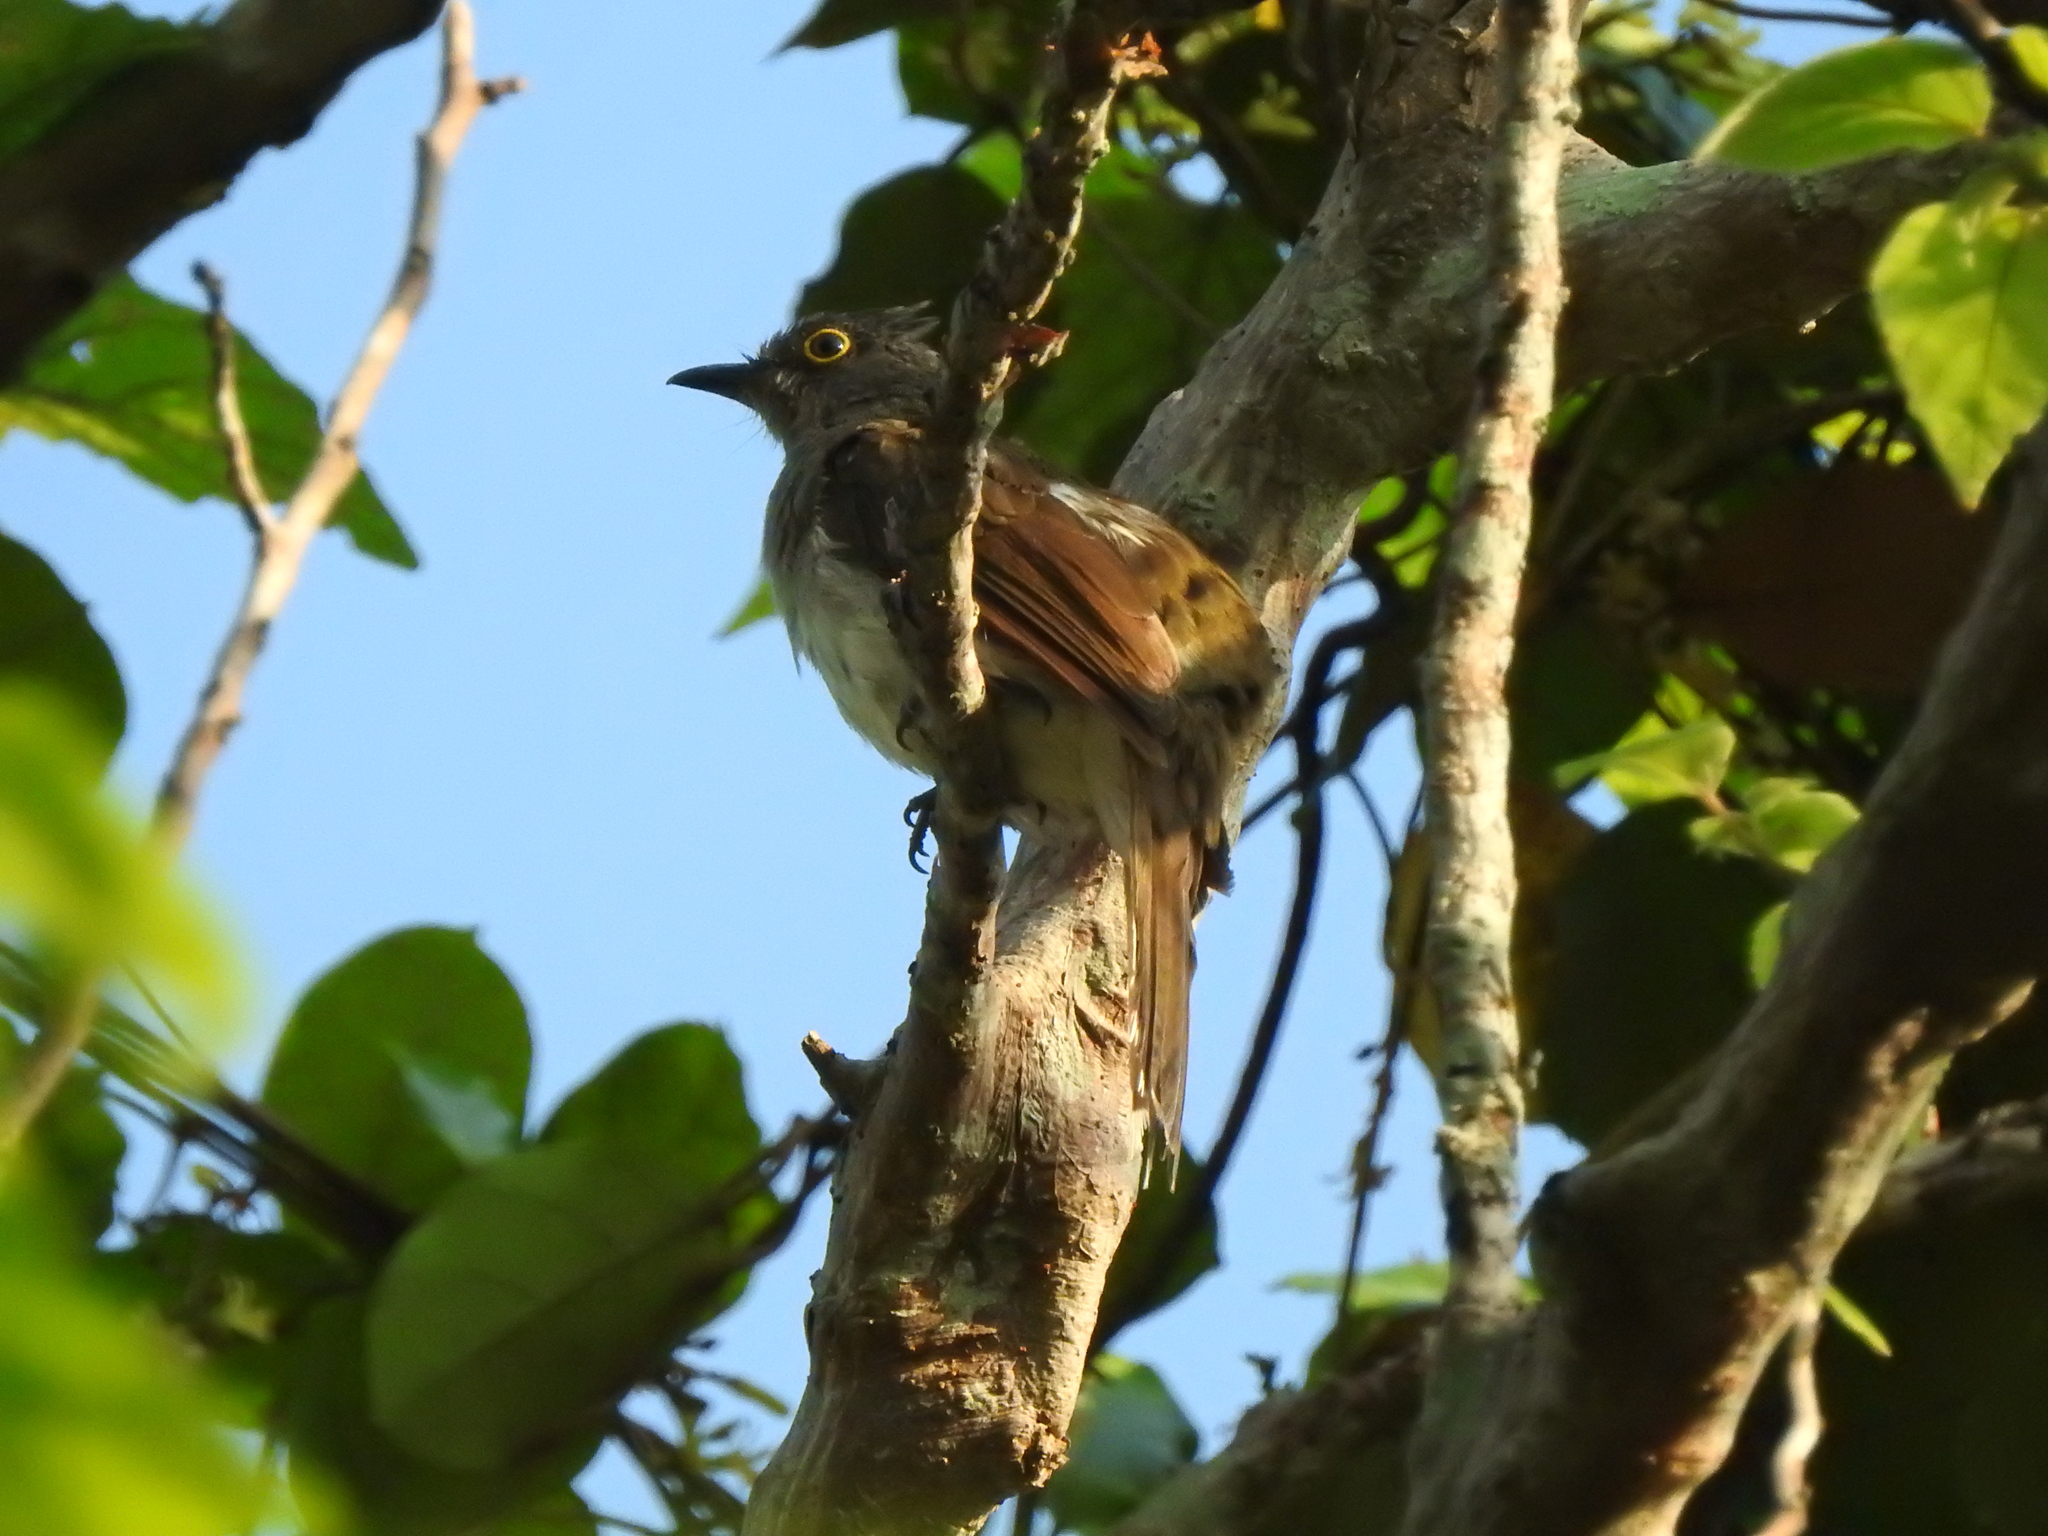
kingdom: Animalia
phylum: Chordata
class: Aves
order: Passeriformes
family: Pycnonotidae
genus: Microtarsus
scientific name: Microtarsus
